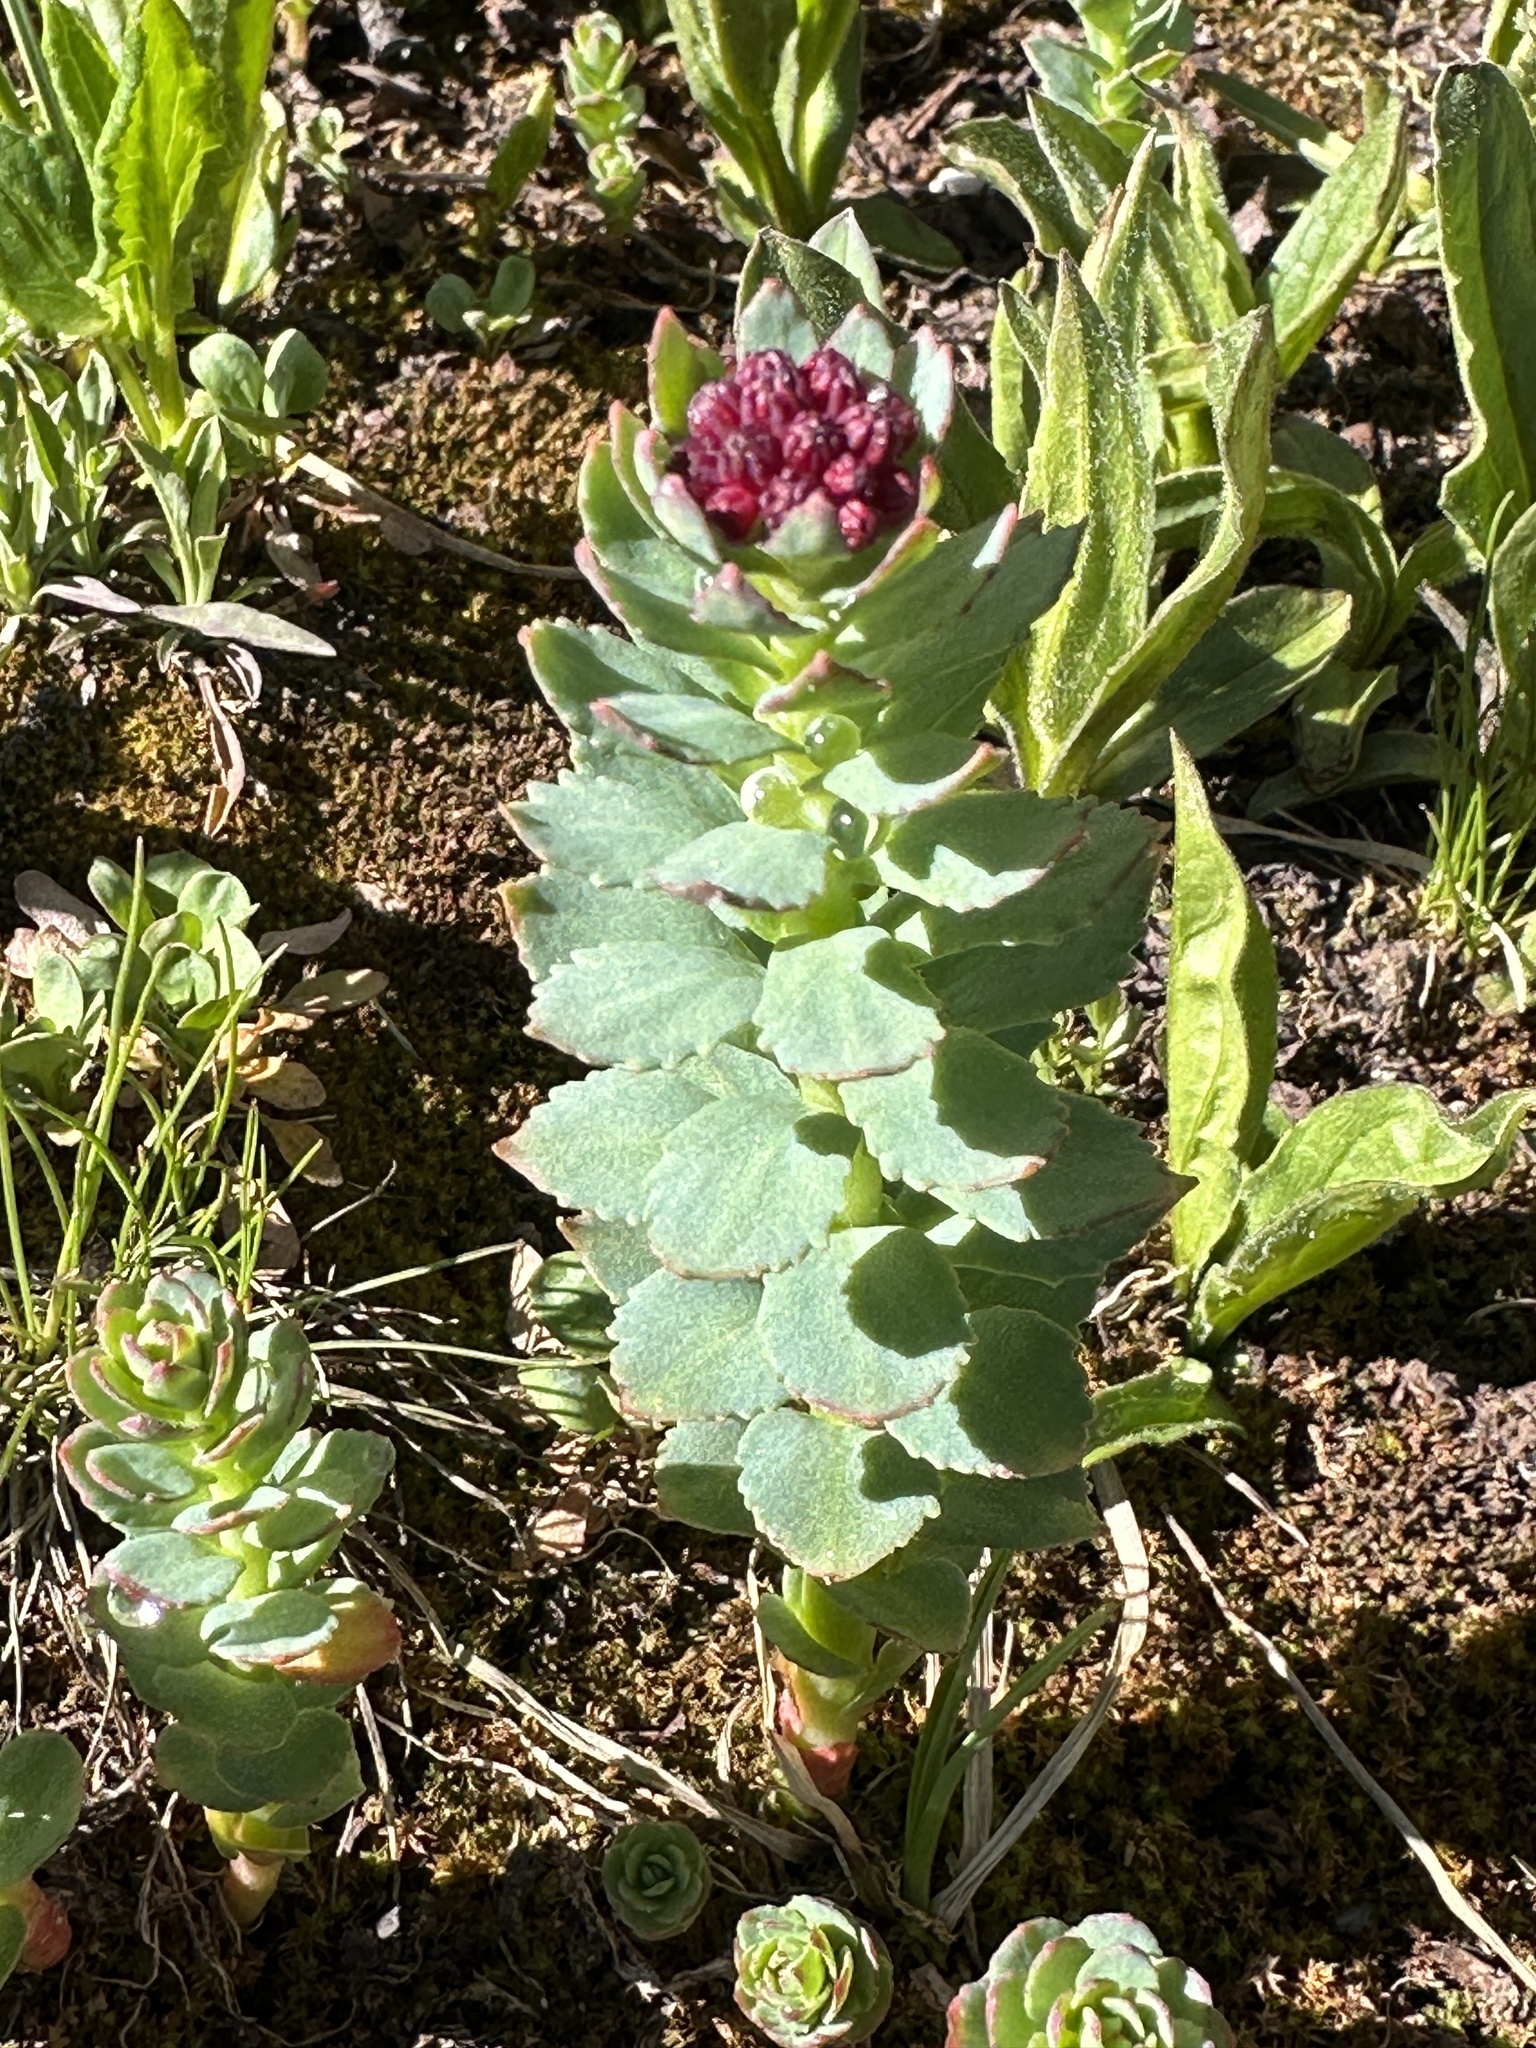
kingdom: Plantae
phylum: Tracheophyta
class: Magnoliopsida
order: Saxifragales
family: Crassulaceae
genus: Rhodiola
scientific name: Rhodiola integrifolia
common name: Western roseroot
